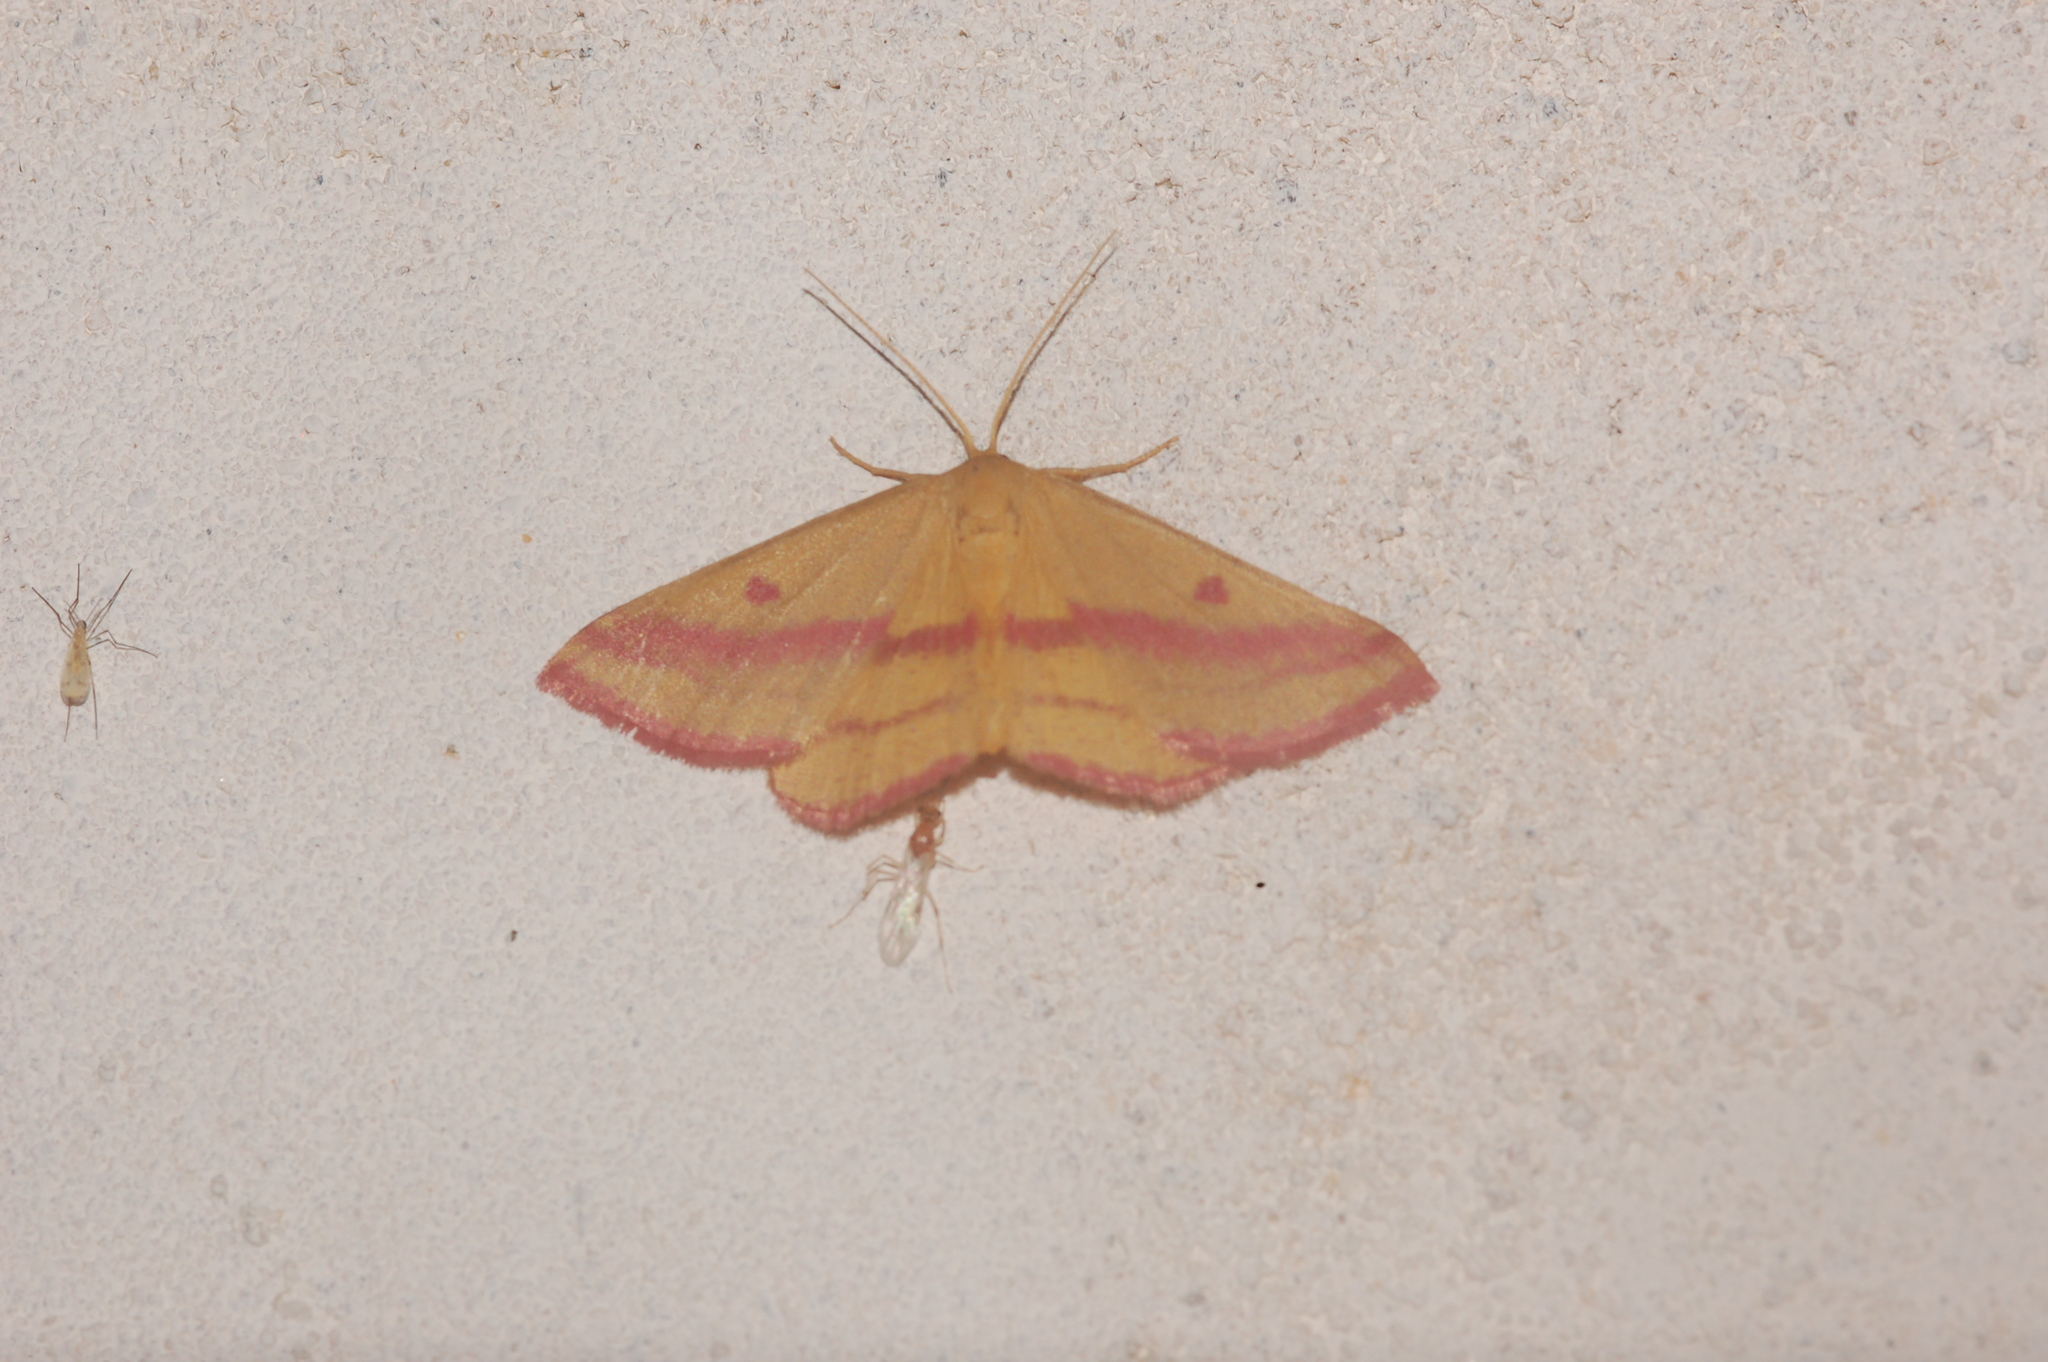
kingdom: Animalia
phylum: Arthropoda
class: Insecta
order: Lepidoptera
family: Geometridae
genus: Haematopis
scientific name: Haematopis grataria
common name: Chickweed geometer
